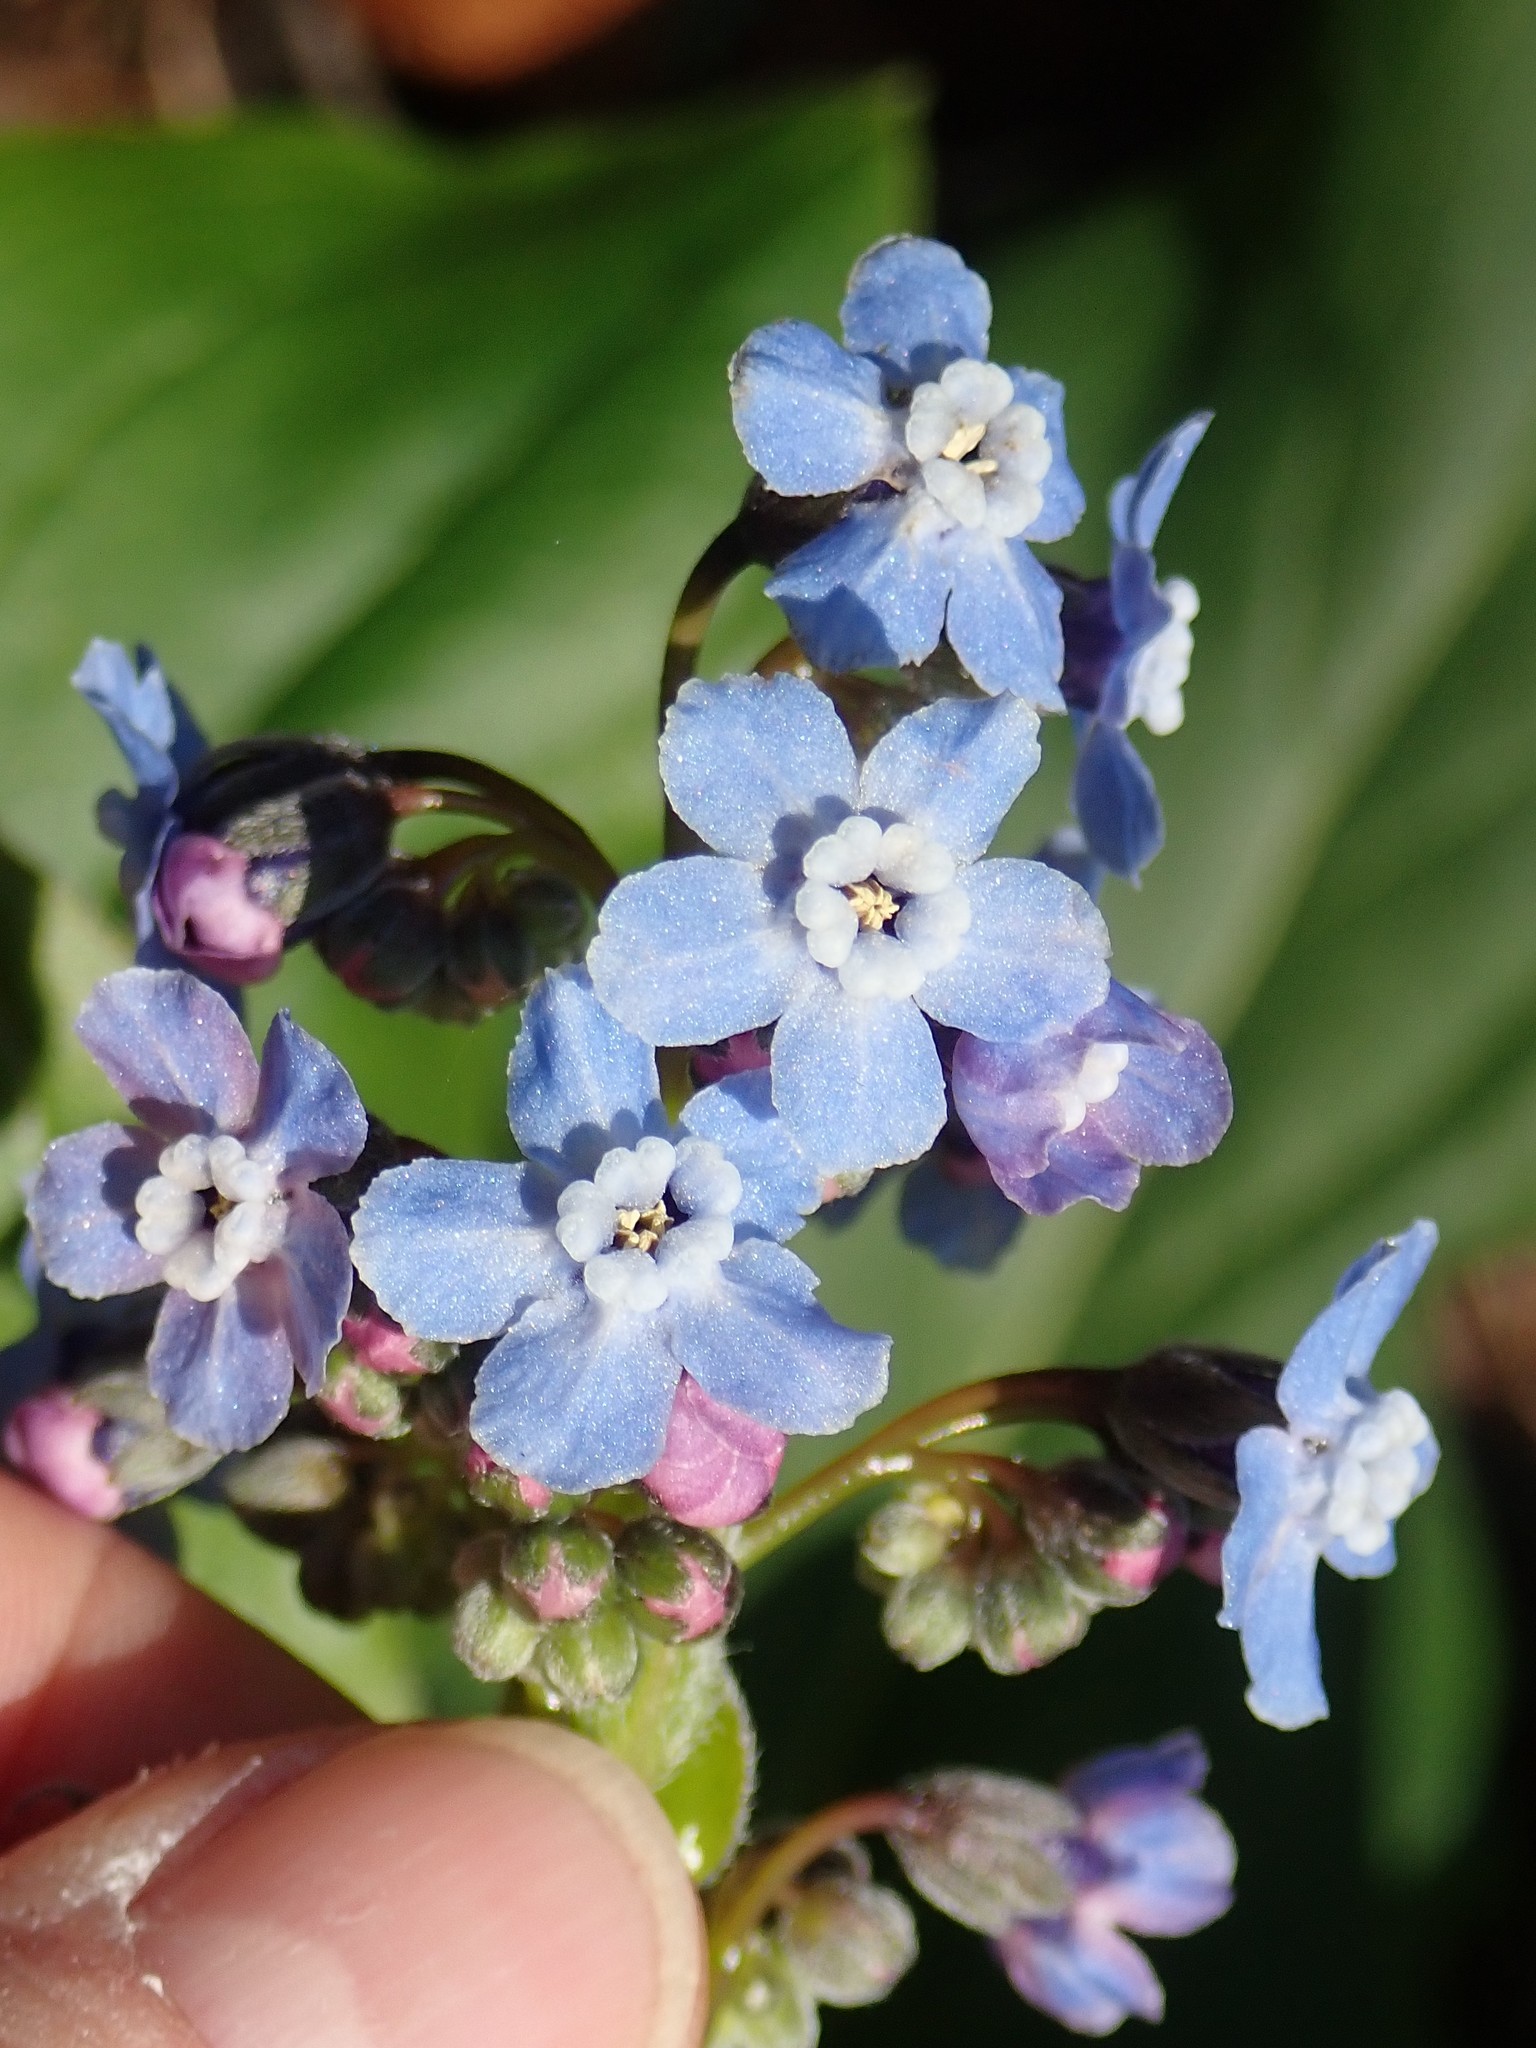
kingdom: Plantae
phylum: Tracheophyta
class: Magnoliopsida
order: Boraginales
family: Boraginaceae
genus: Adelinia
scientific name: Adelinia grande
